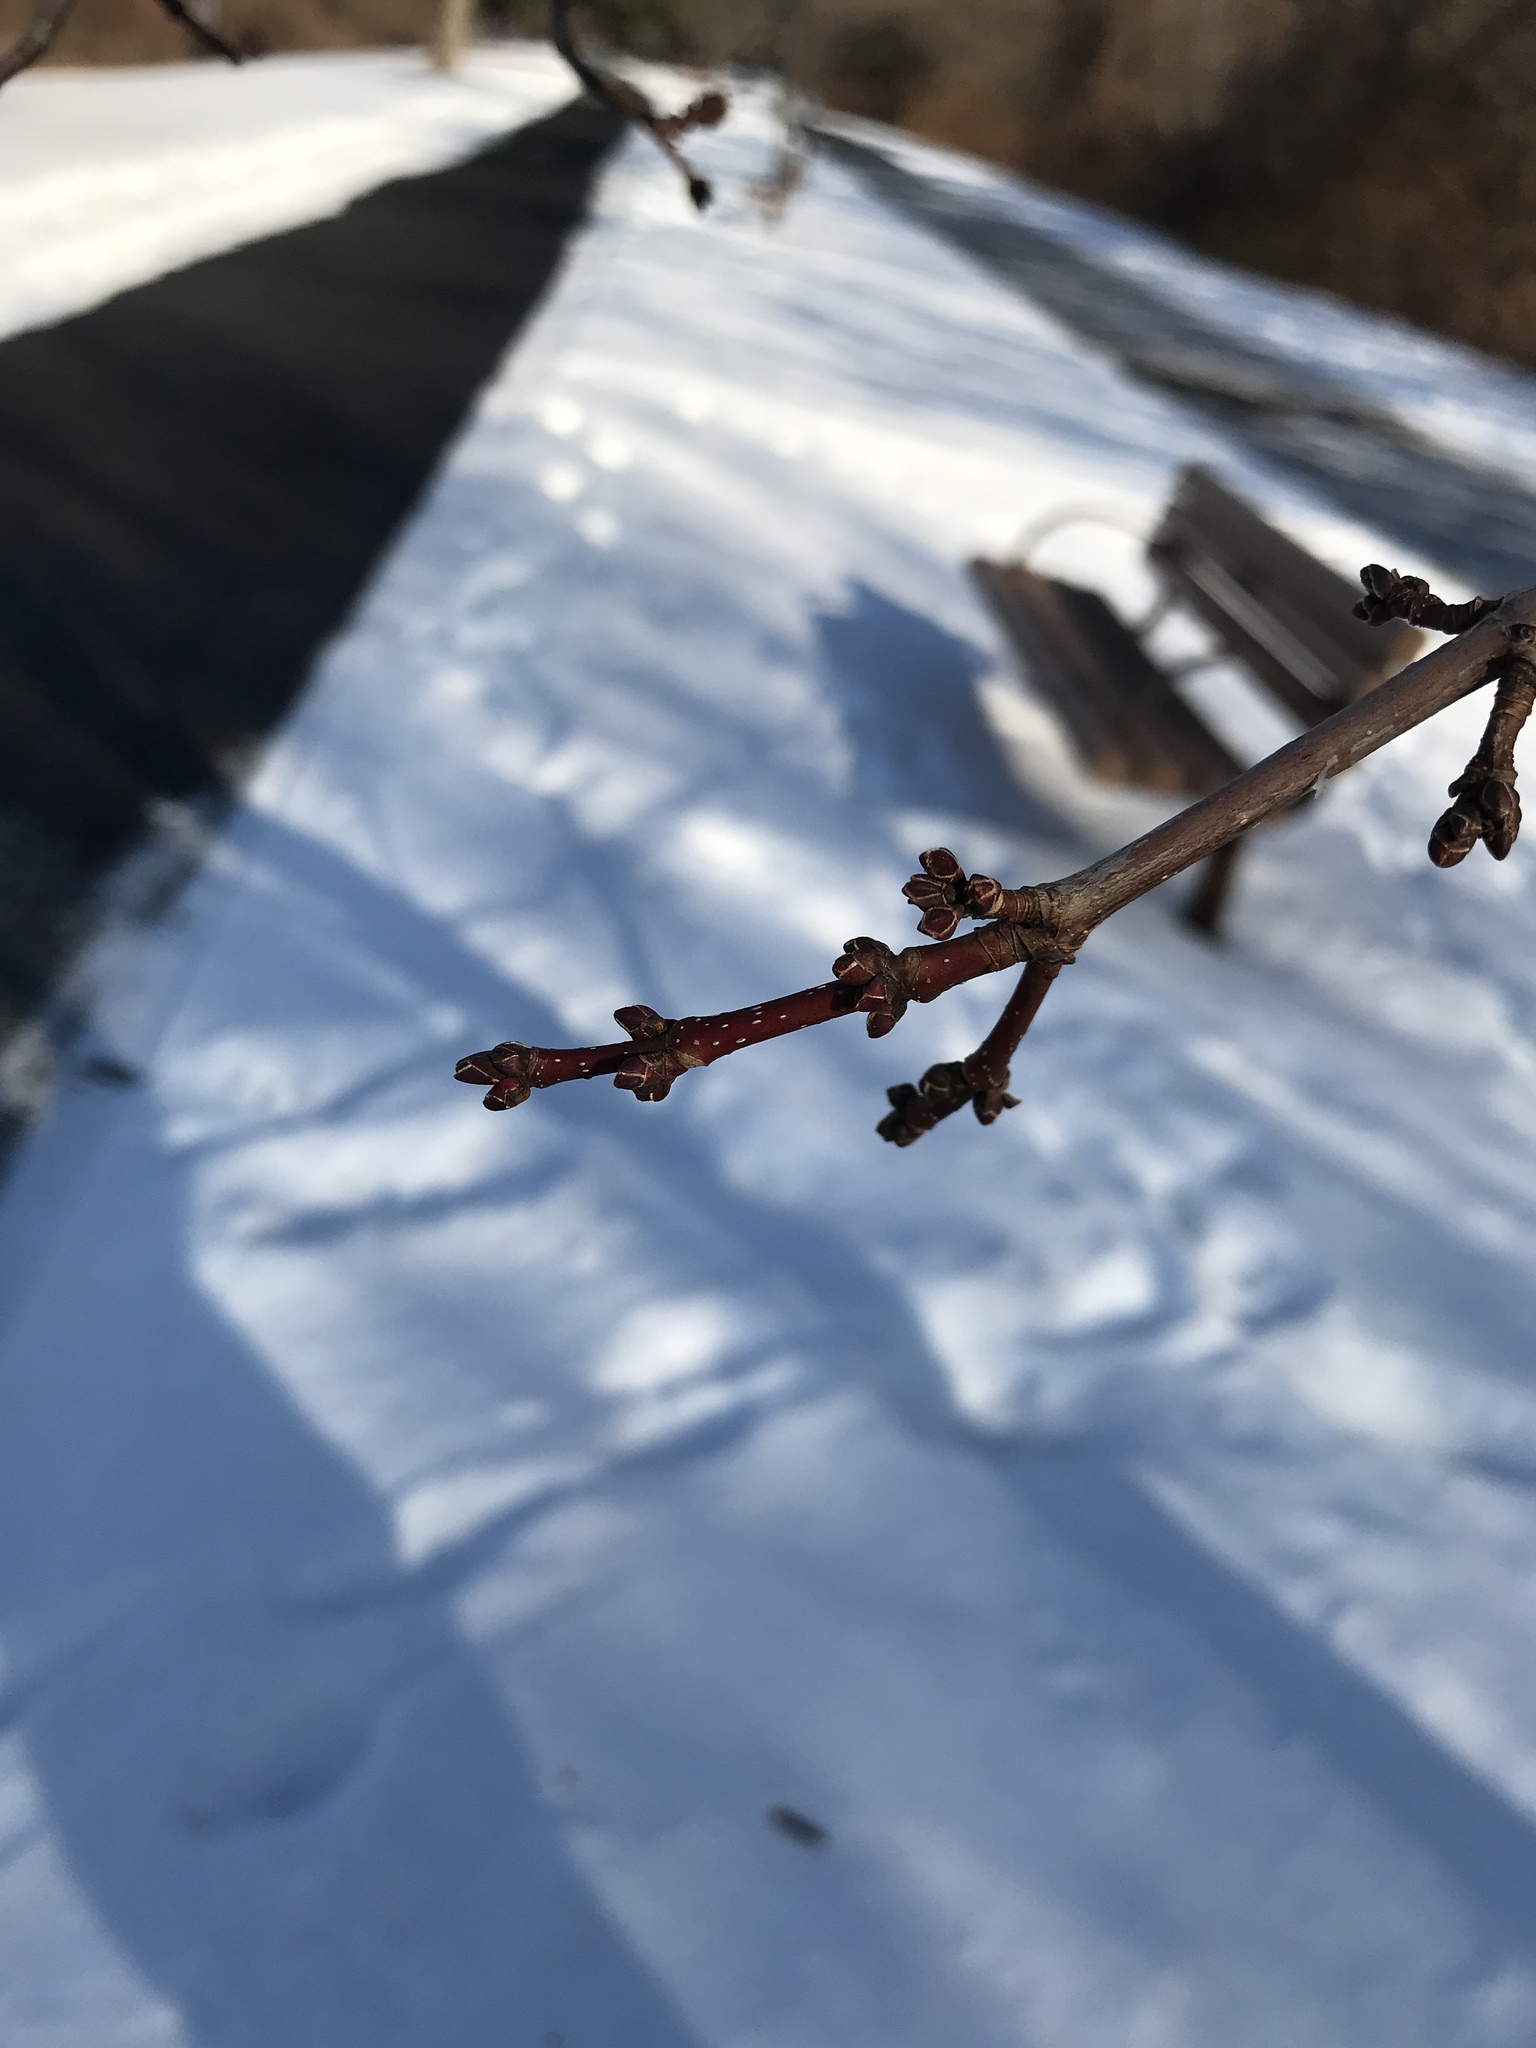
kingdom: Plantae
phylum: Tracheophyta
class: Magnoliopsida
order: Sapindales
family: Sapindaceae
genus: Acer
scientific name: Acer rubrum
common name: Red maple
